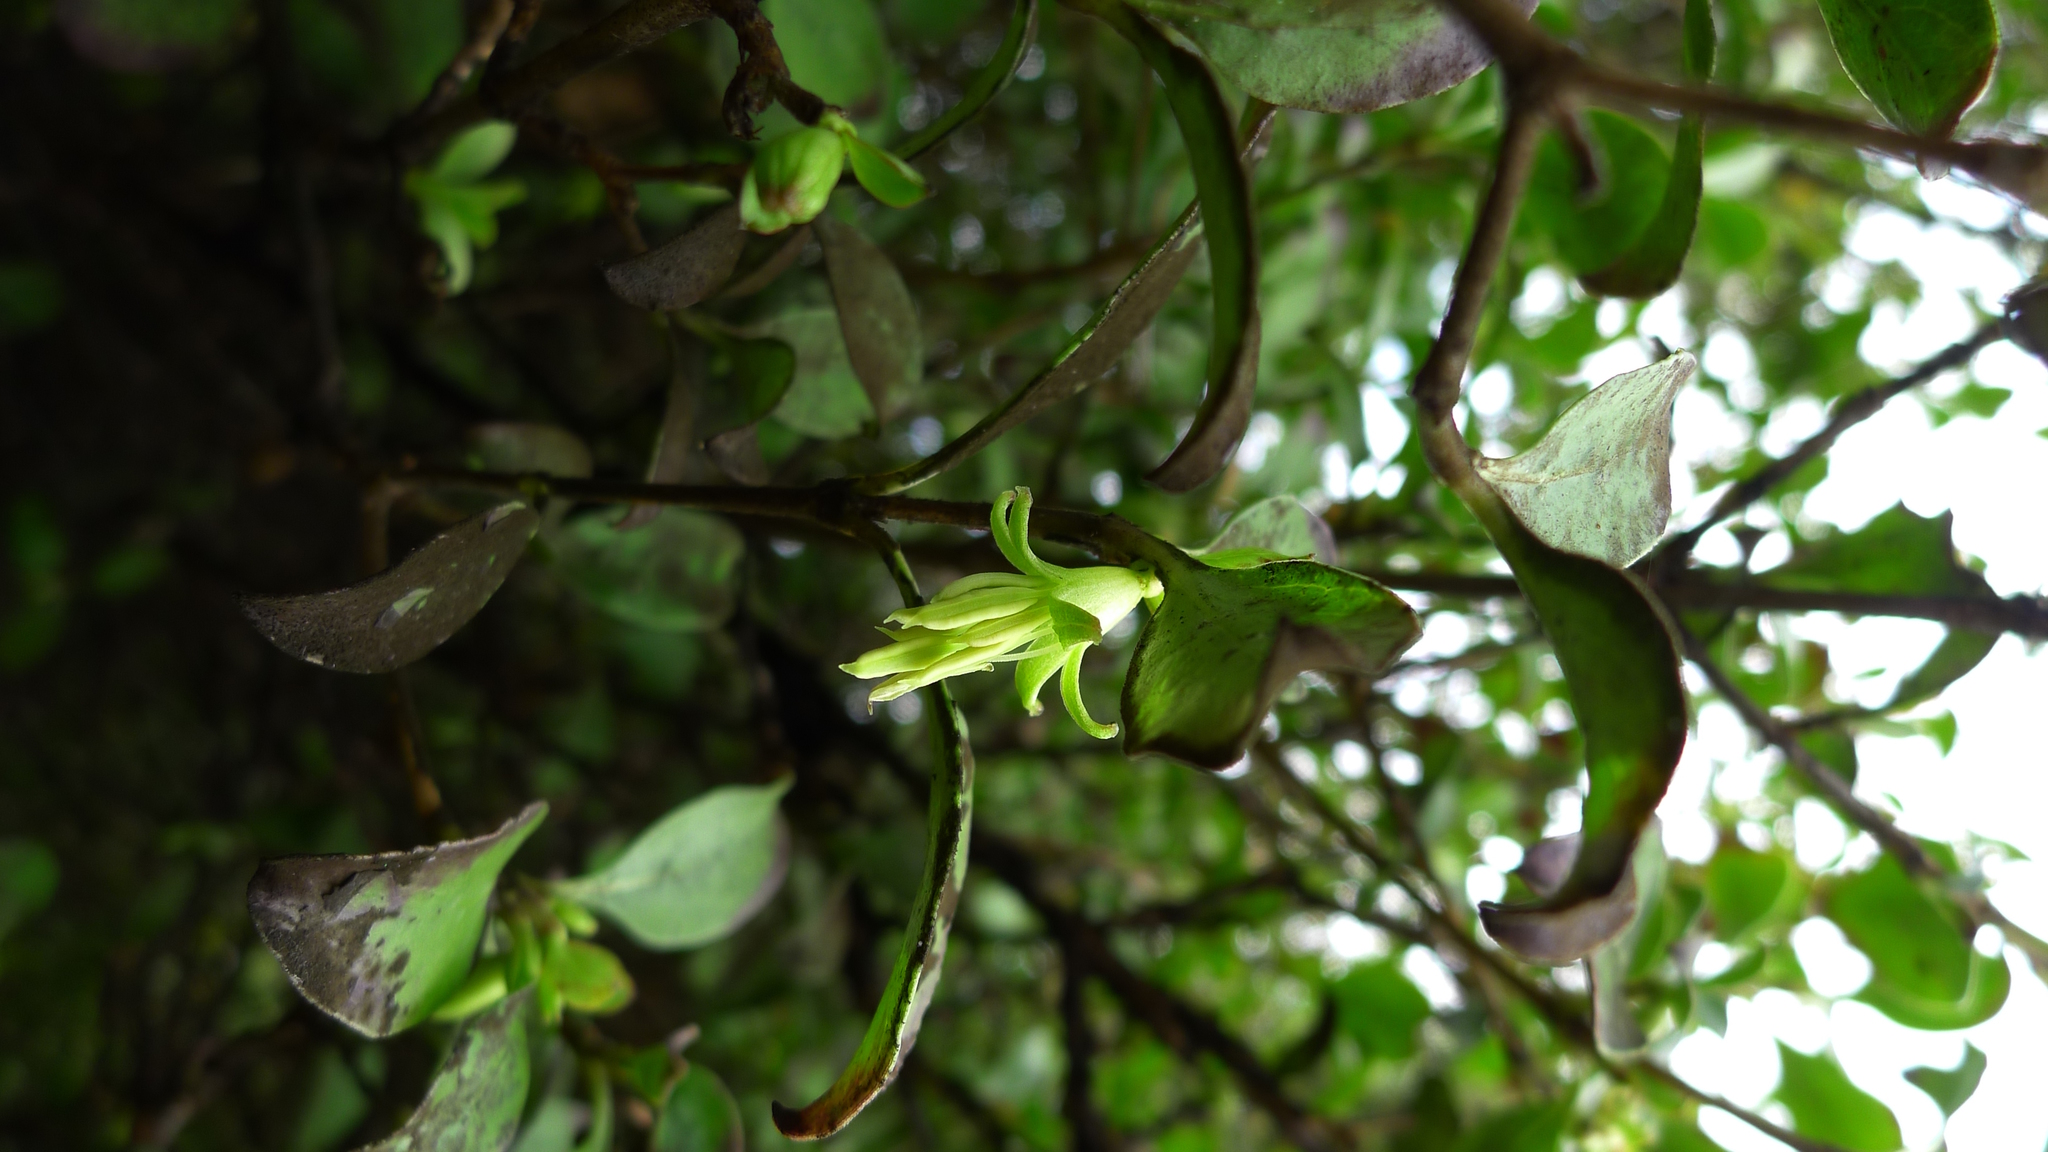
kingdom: Plantae
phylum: Tracheophyta
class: Magnoliopsida
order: Gentianales
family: Rubiaceae
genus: Coprosma
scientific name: Coprosma foetidissima
